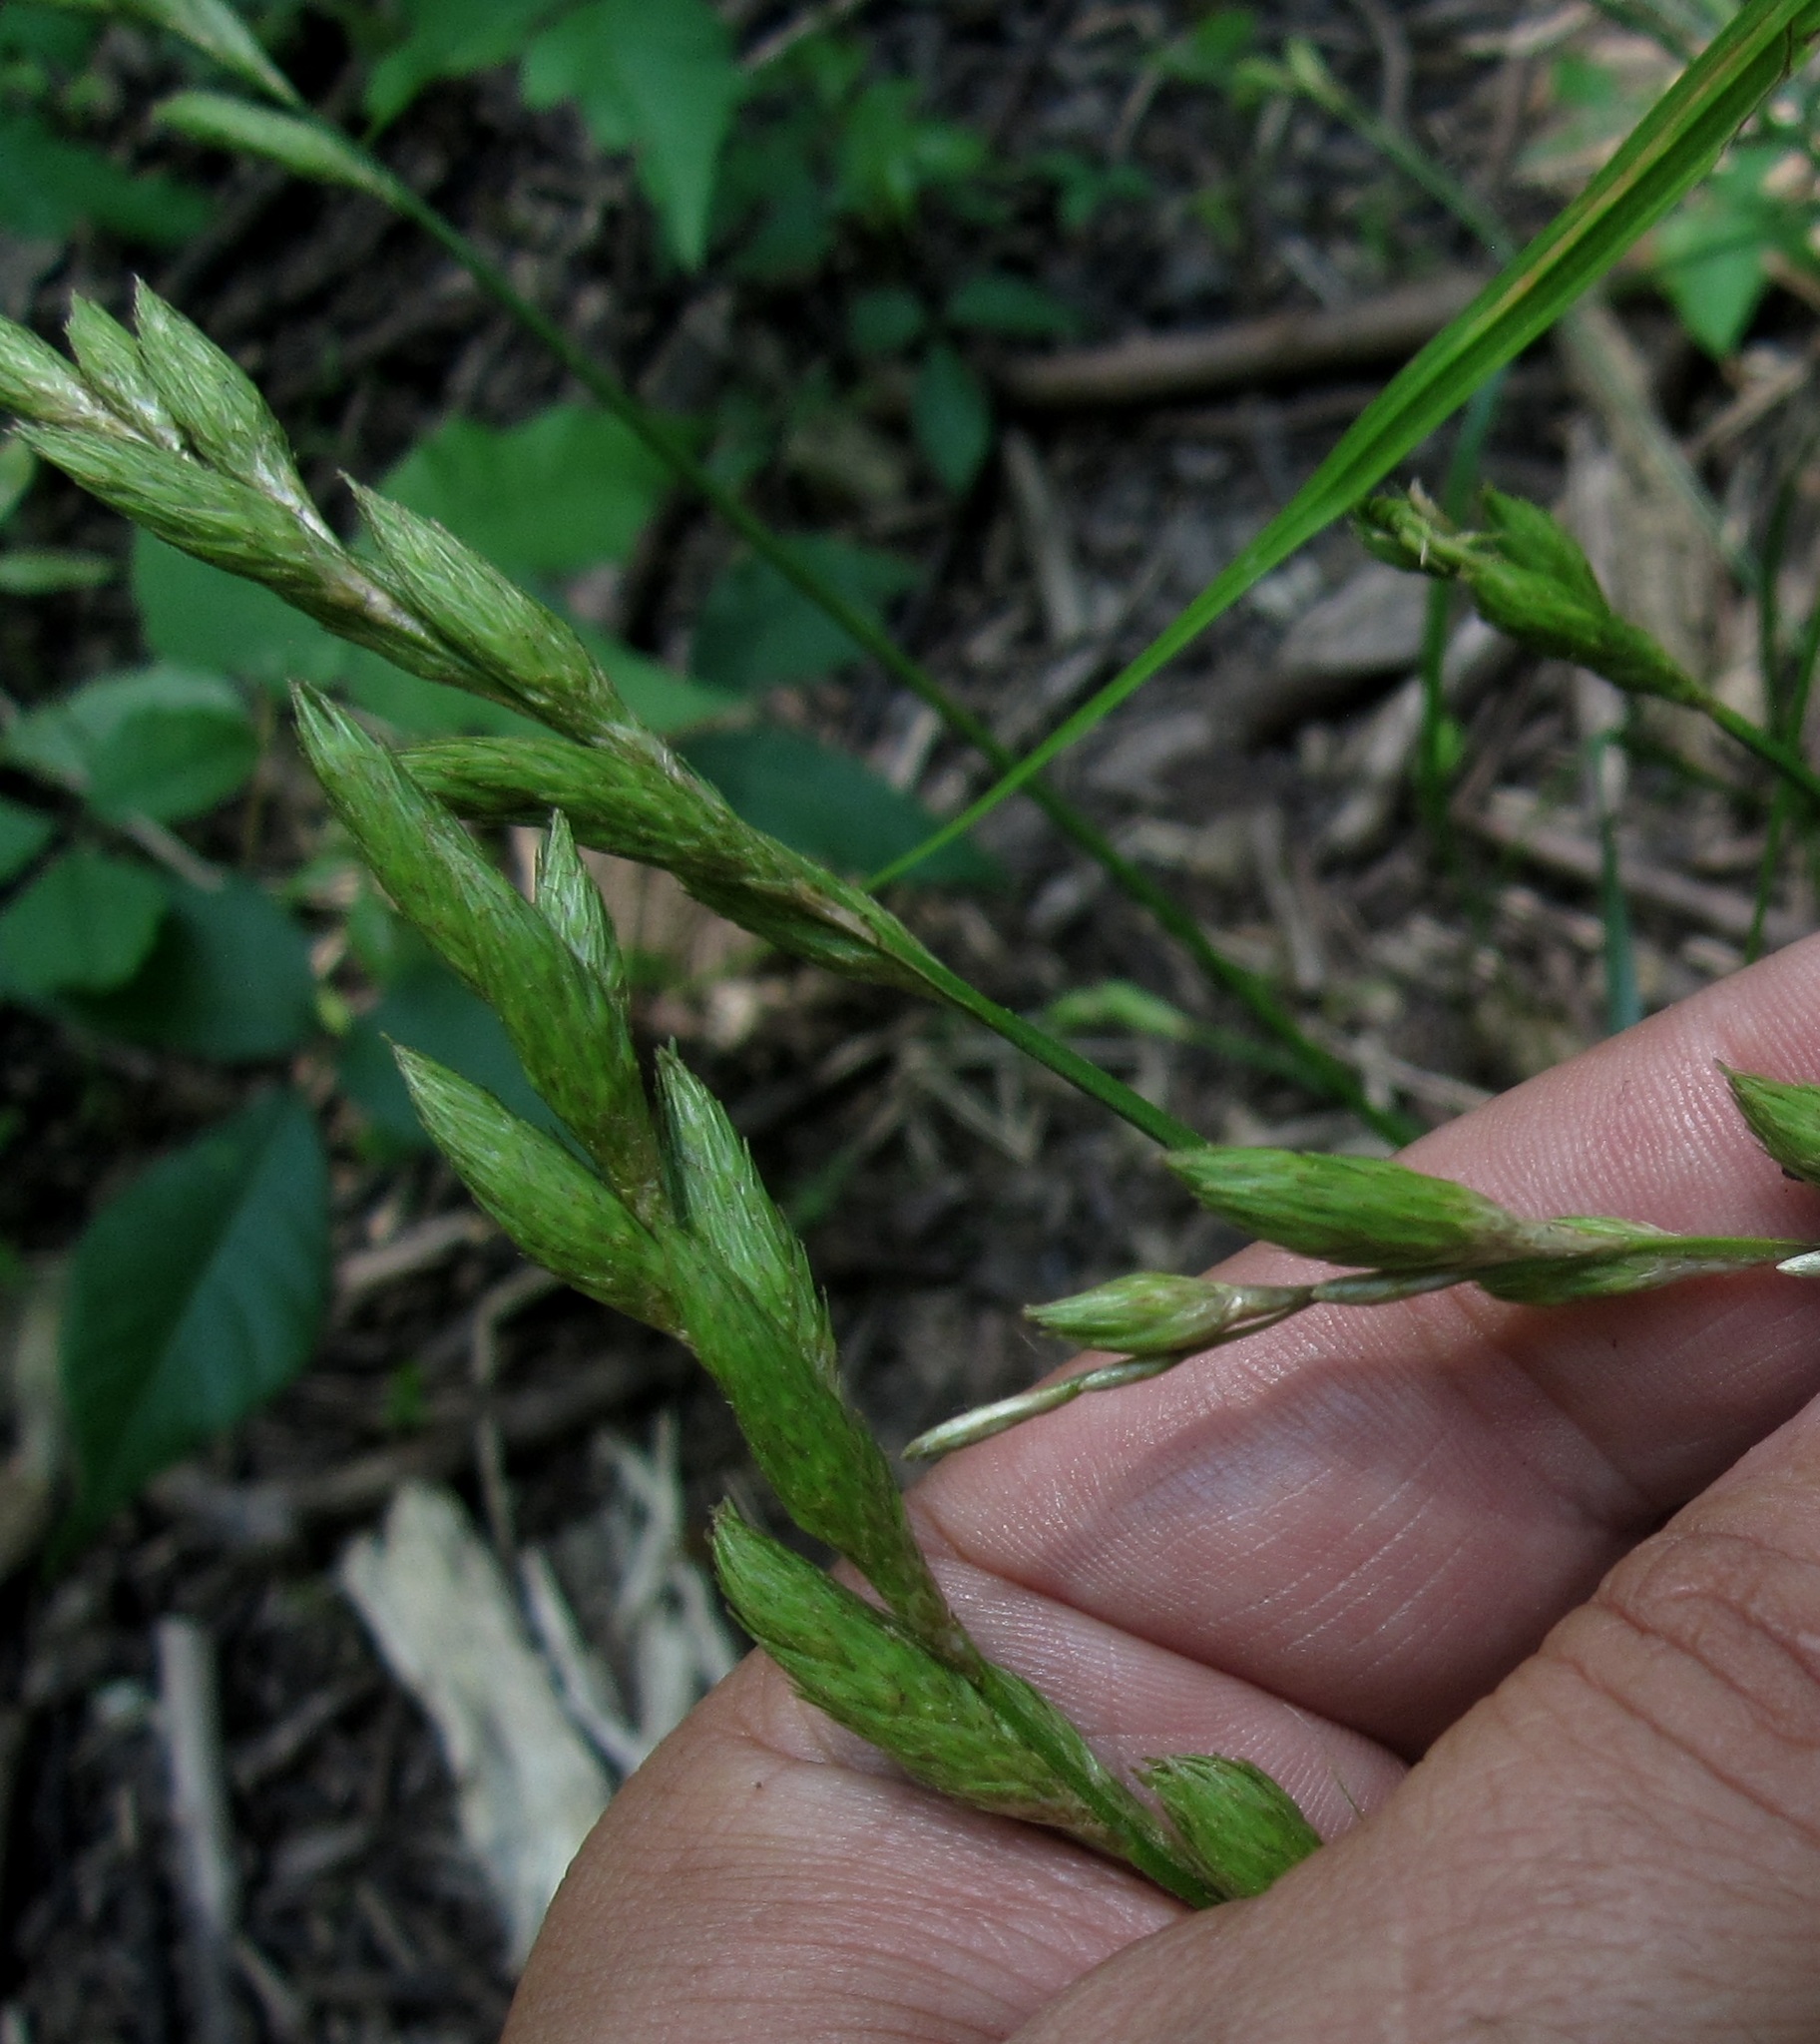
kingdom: Plantae
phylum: Tracheophyta
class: Liliopsida
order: Poales
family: Cyperaceae
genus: Carex
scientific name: Carex muskingumensis
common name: Muskingum sedge
